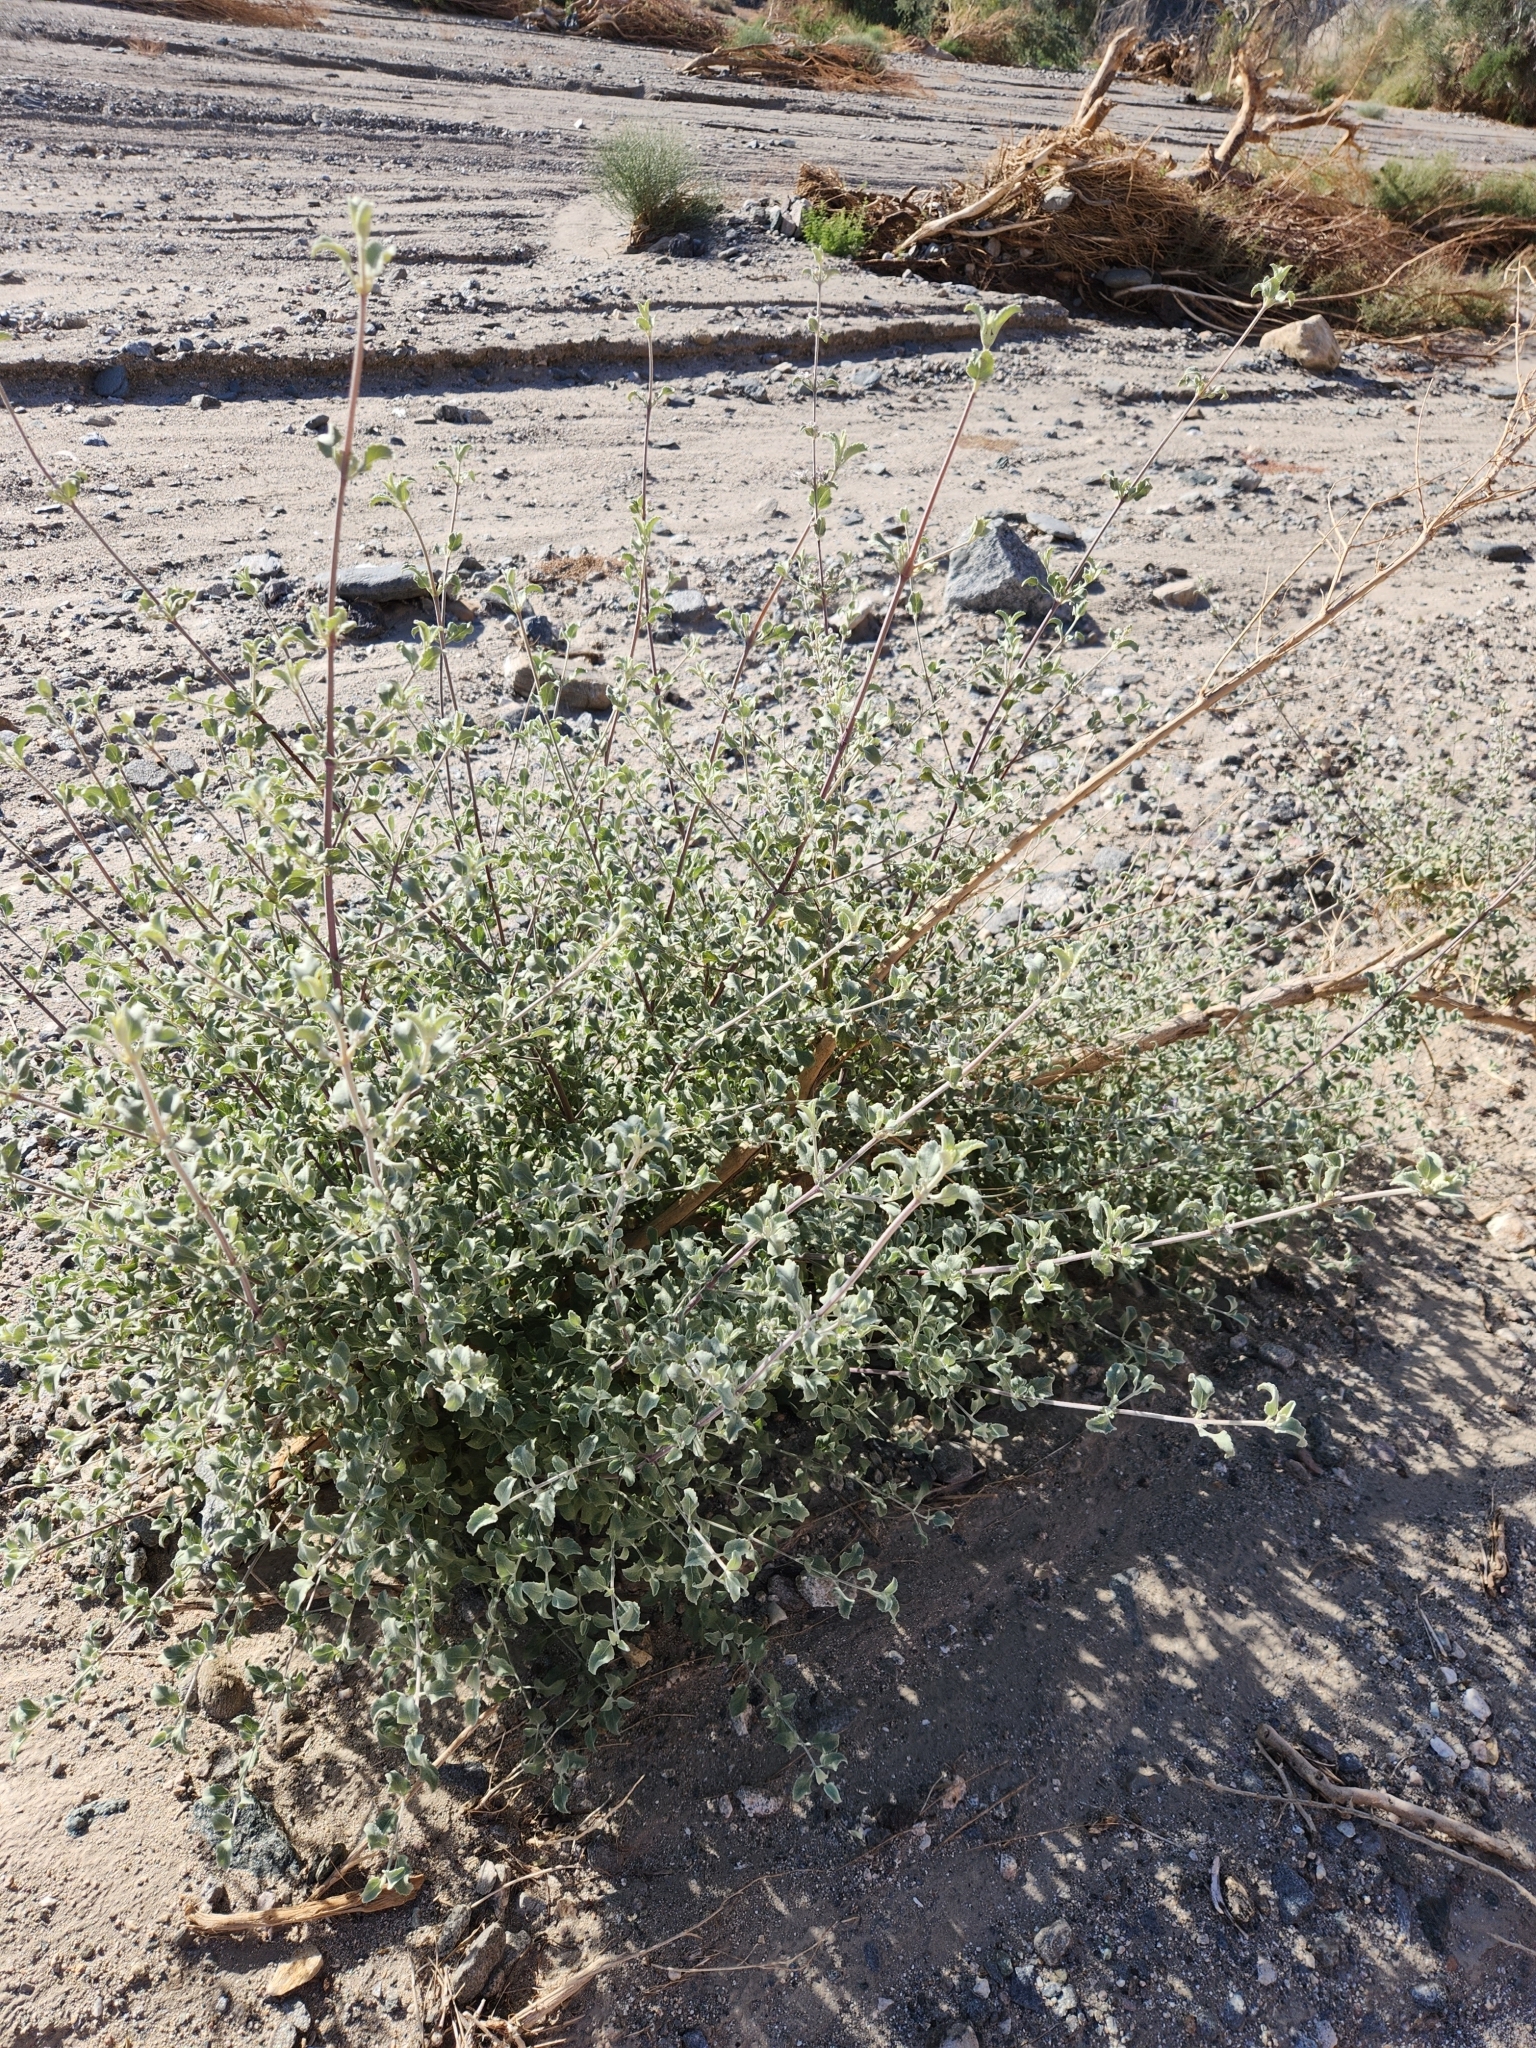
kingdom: Plantae
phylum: Tracheophyta
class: Magnoliopsida
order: Lamiales
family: Lamiaceae
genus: Condea
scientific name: Condea emoryi
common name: Chia
